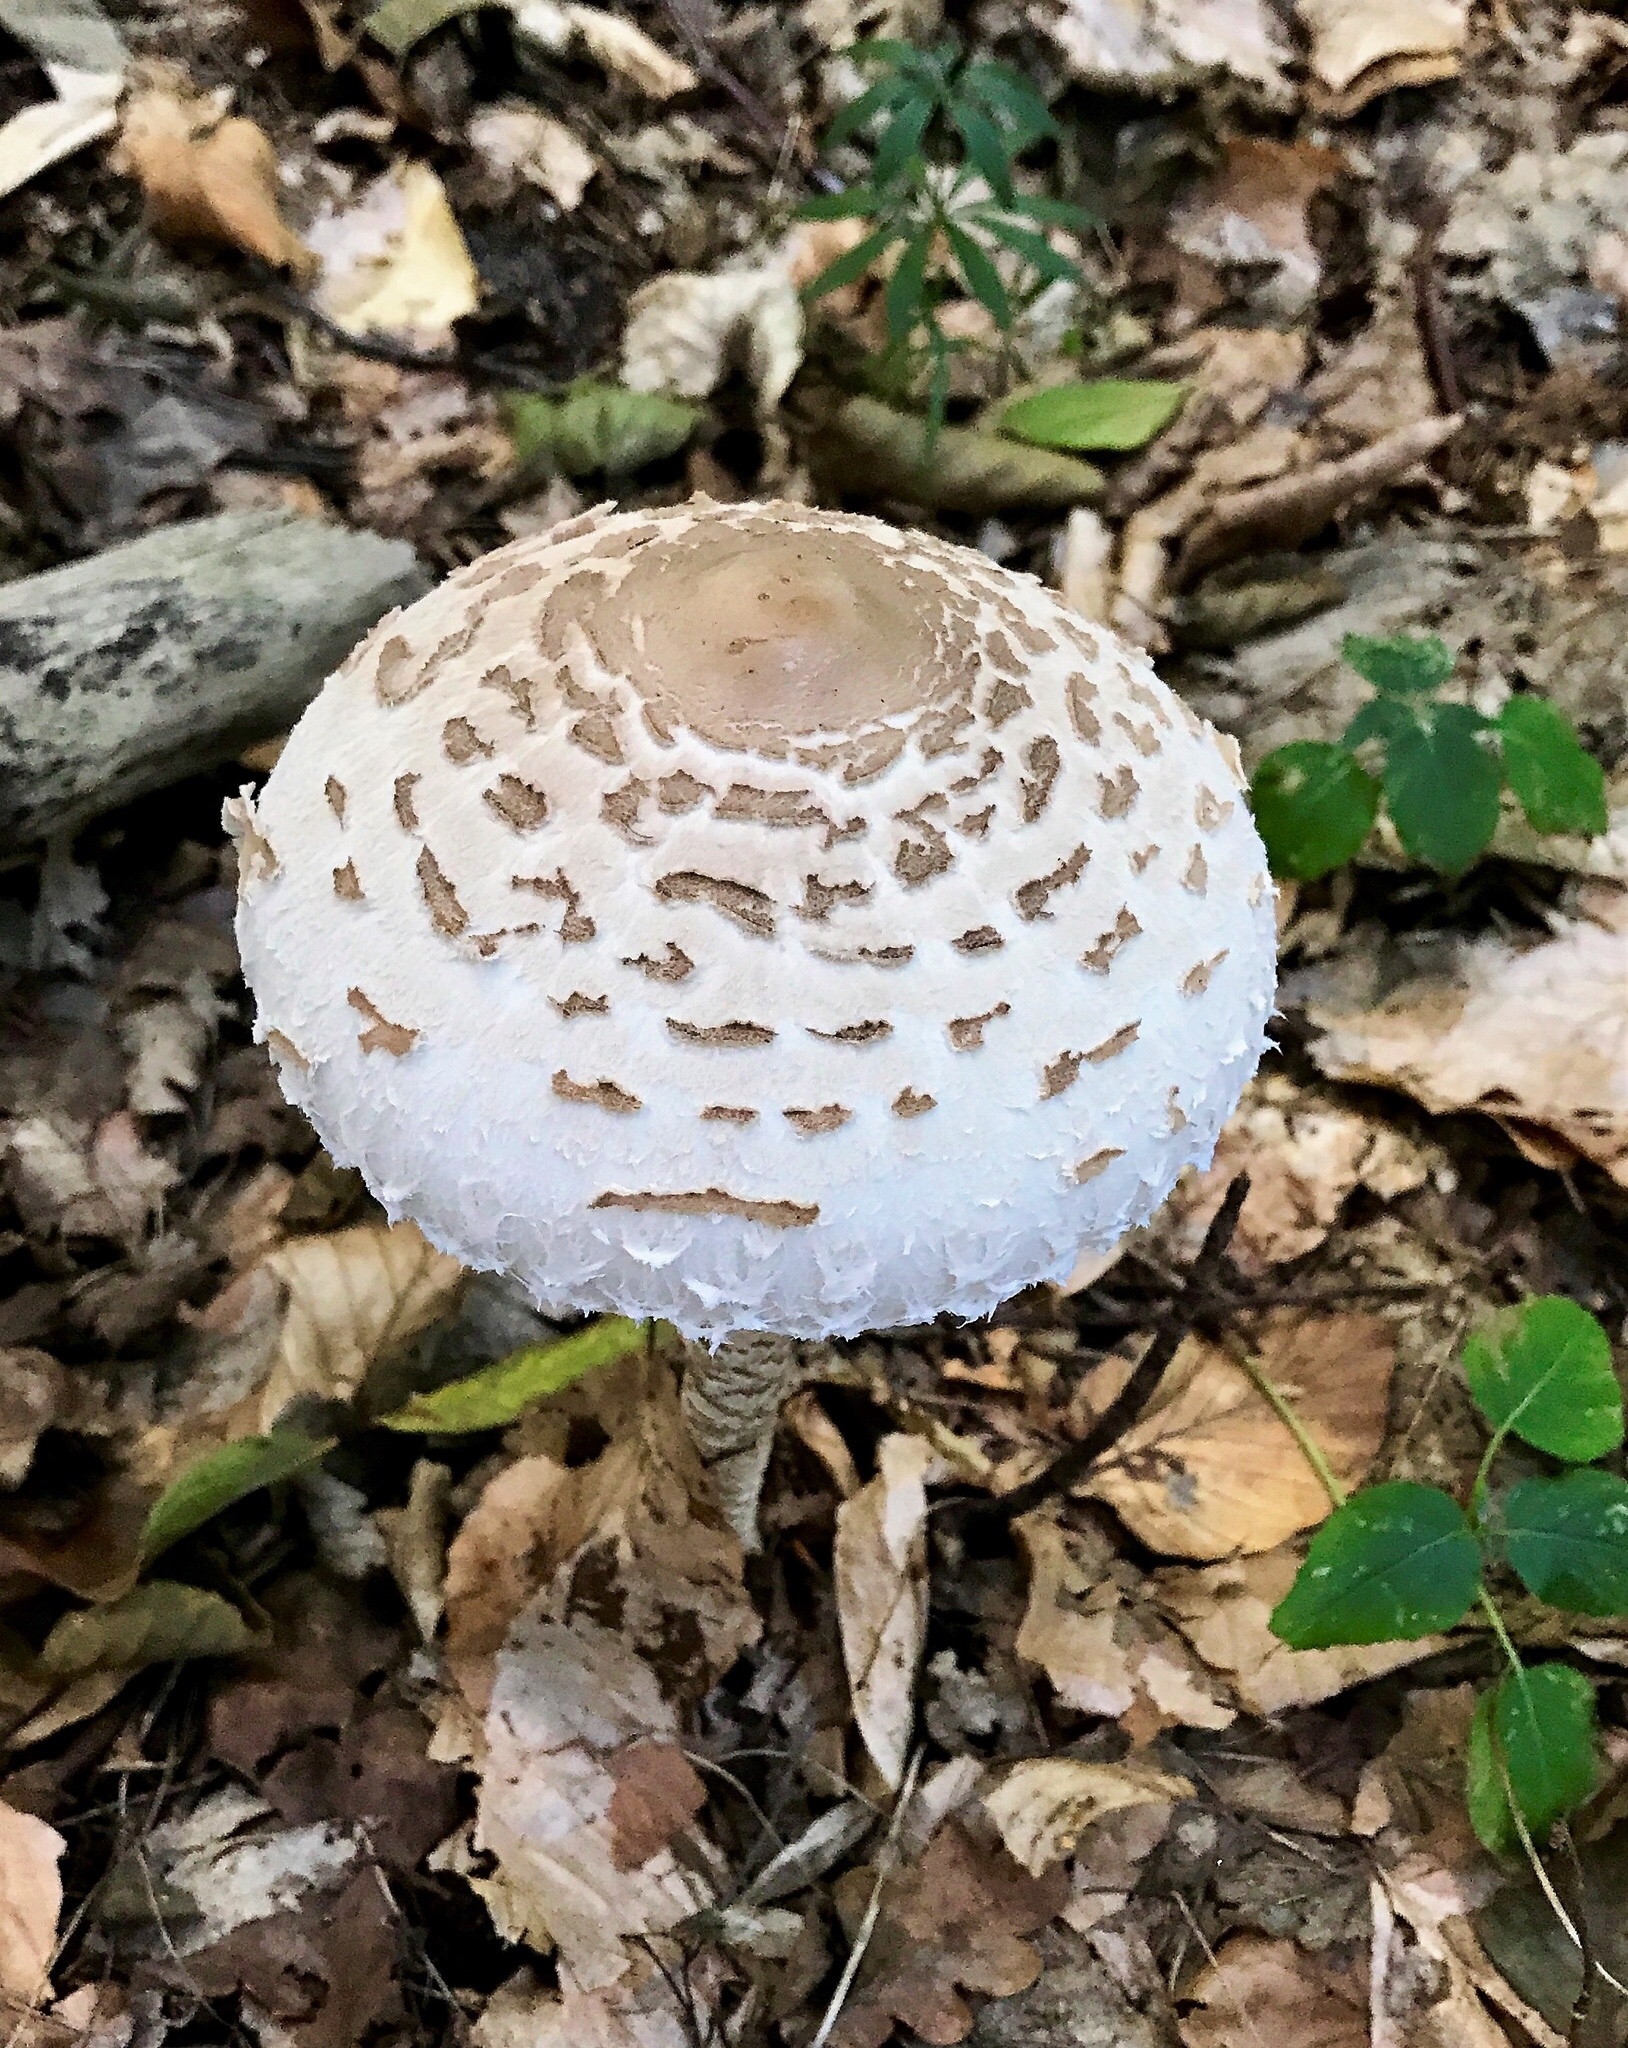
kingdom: Fungi
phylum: Basidiomycota
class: Agaricomycetes
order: Agaricales
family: Agaricaceae
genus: Macrolepiota
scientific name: Macrolepiota procera
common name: Parasol
